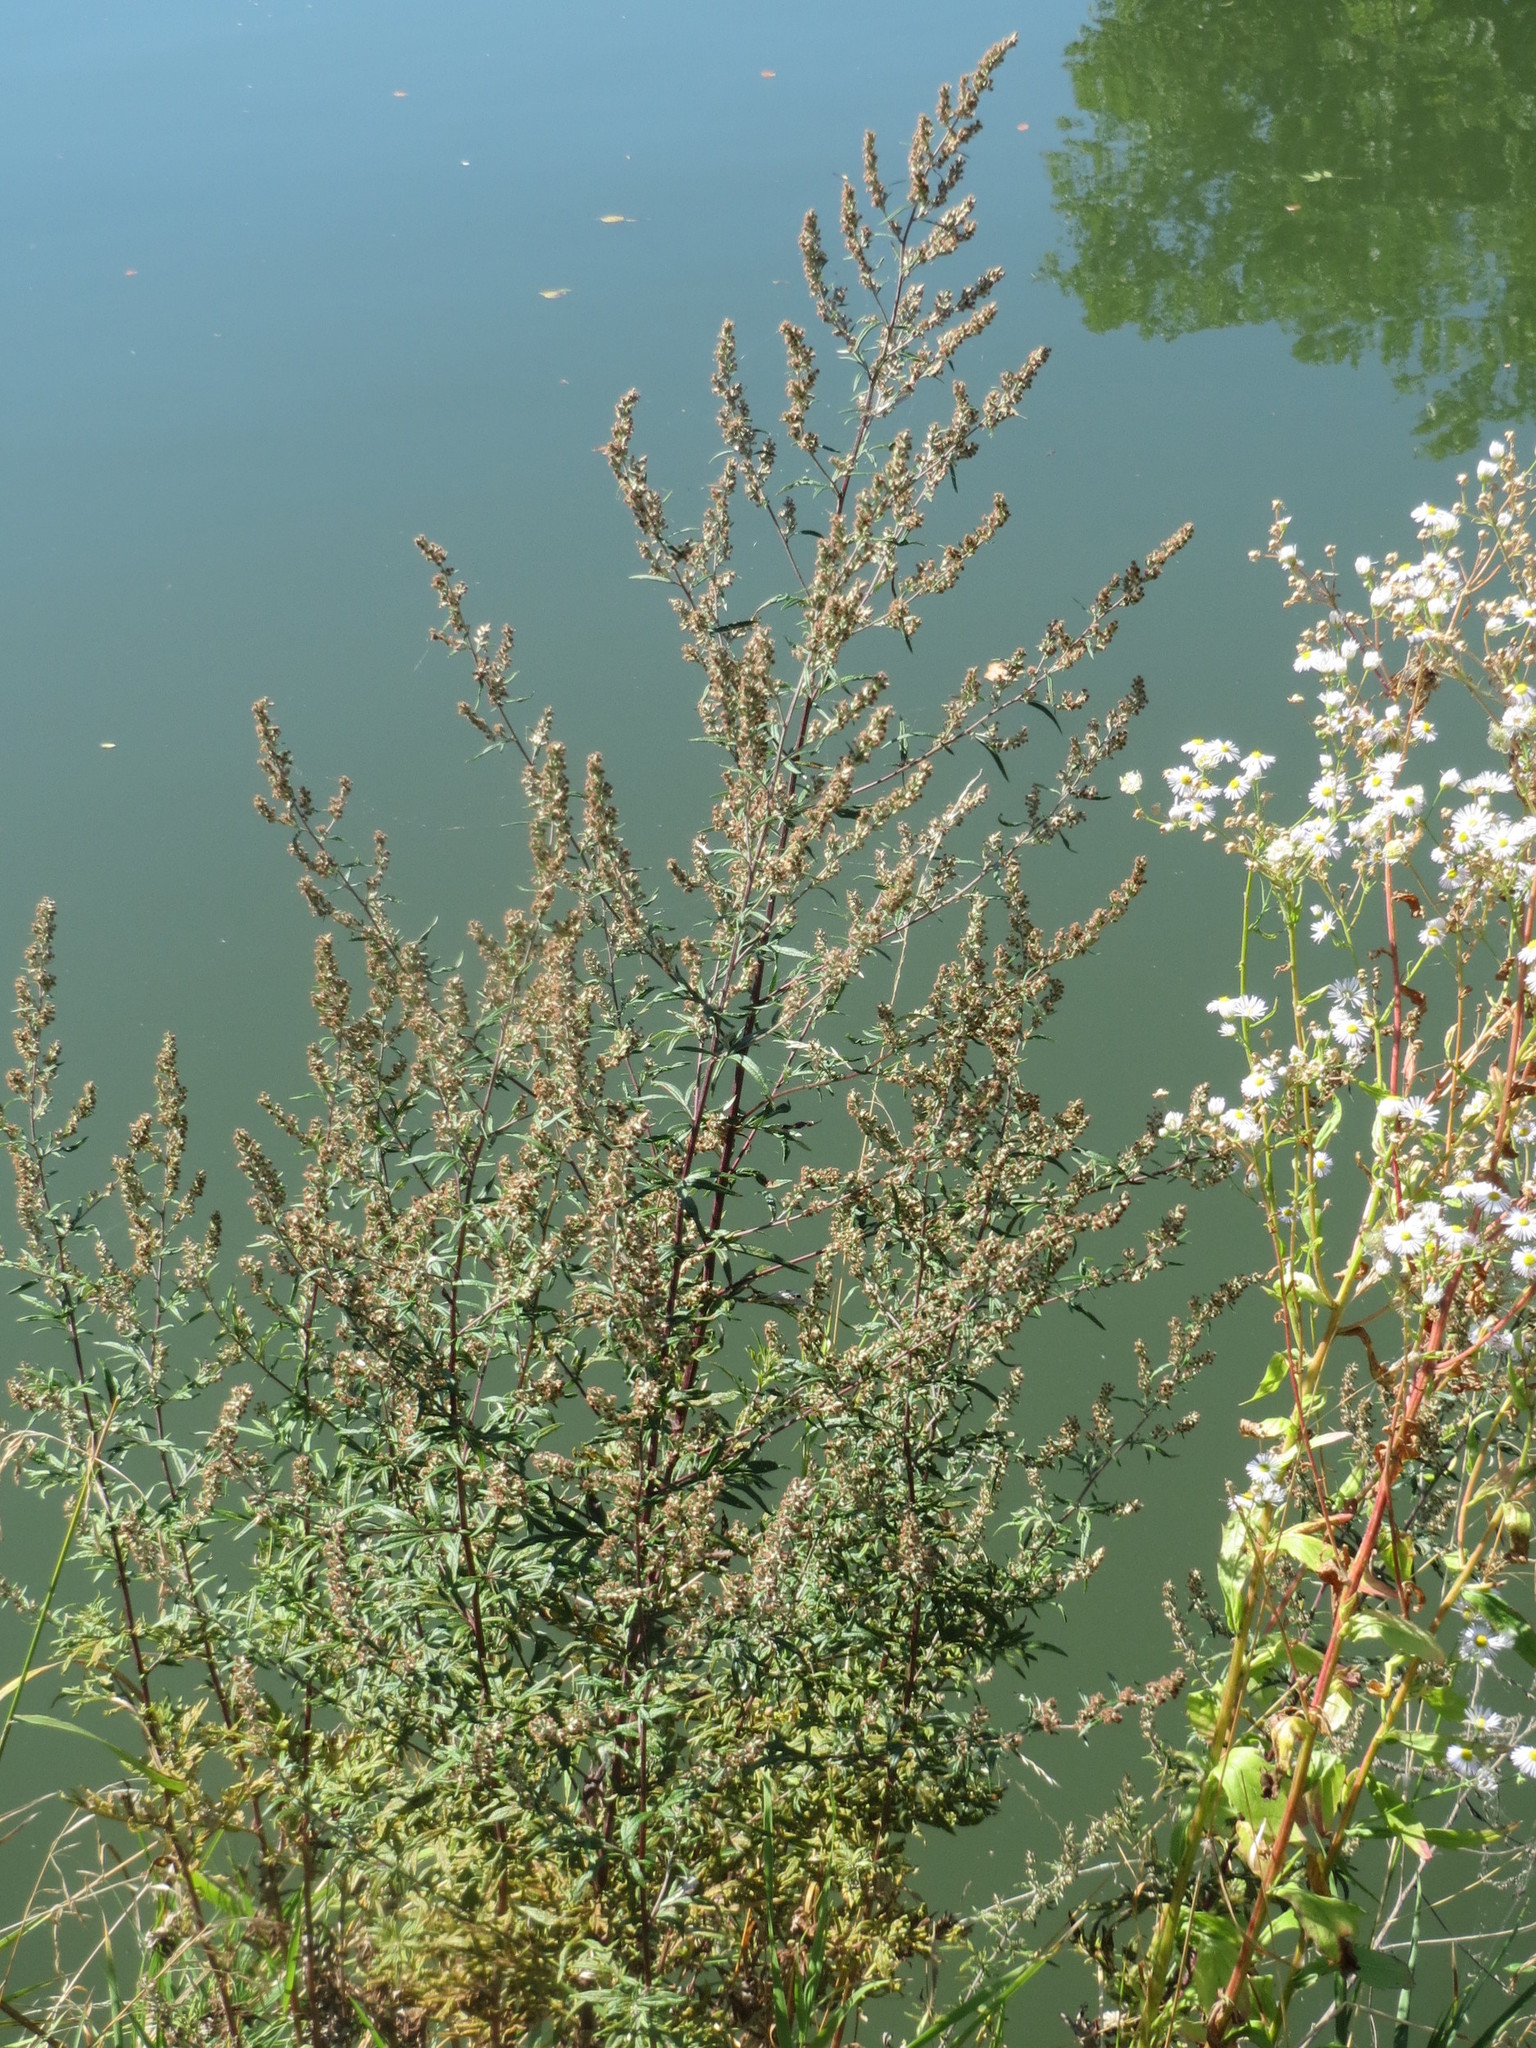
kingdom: Plantae
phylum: Tracheophyta
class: Magnoliopsida
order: Asterales
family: Asteraceae
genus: Artemisia
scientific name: Artemisia vulgaris
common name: Mugwort
